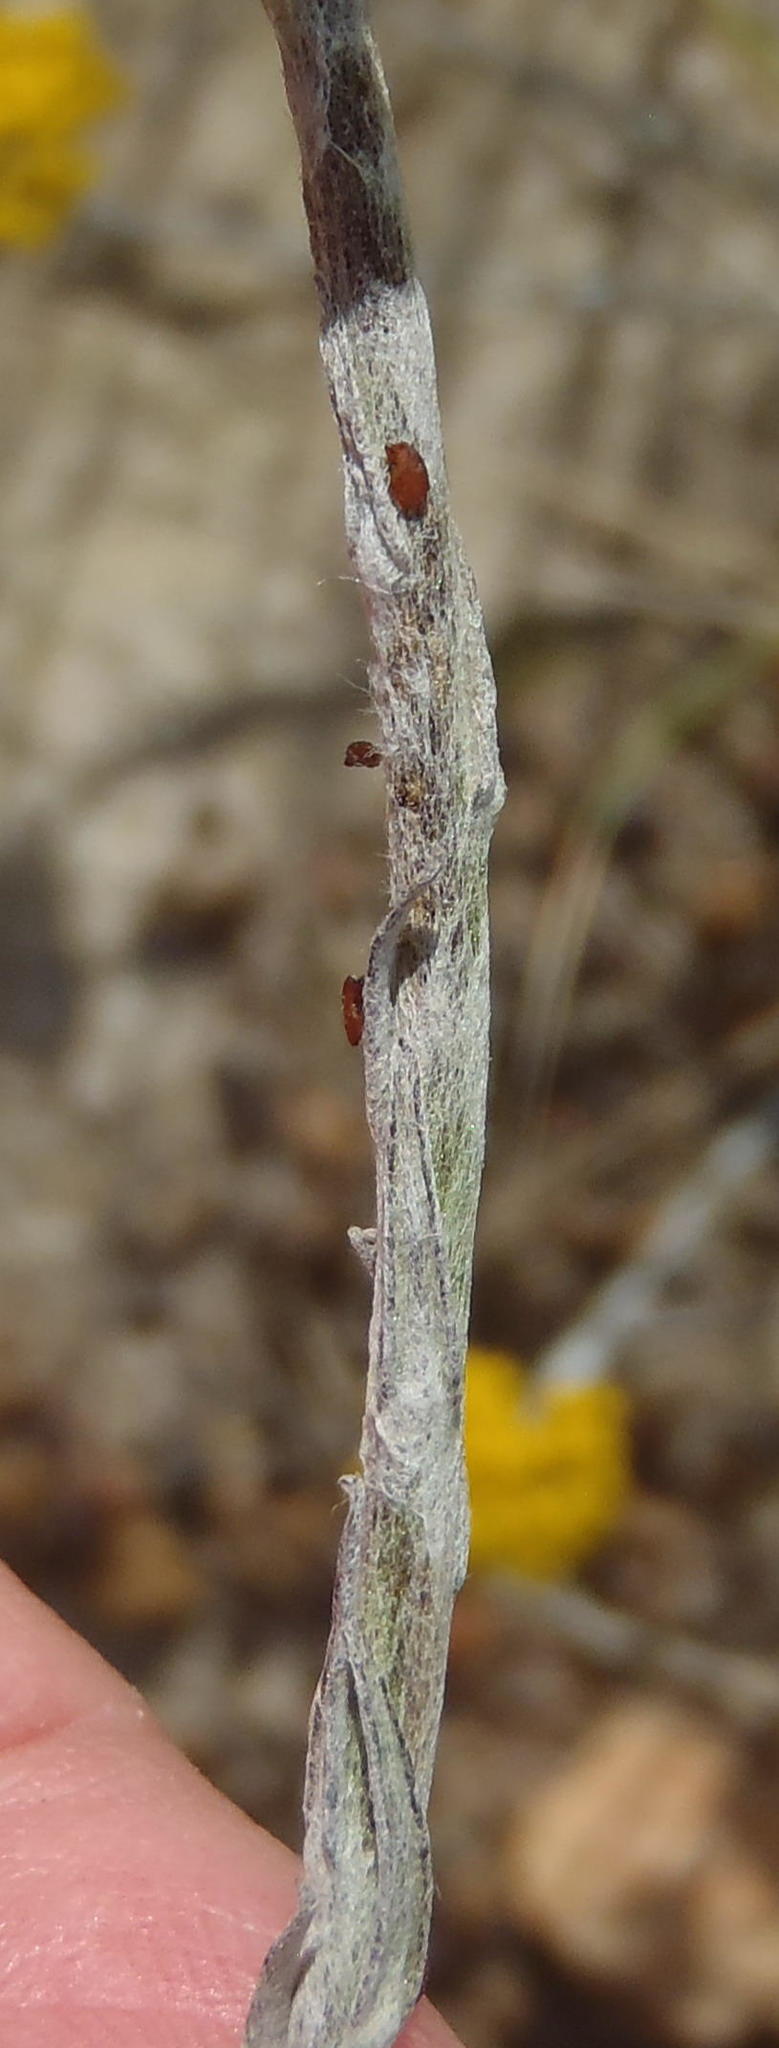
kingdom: Plantae
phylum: Tracheophyta
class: Magnoliopsida
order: Asterales
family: Asteraceae
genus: Helichrysum
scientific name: Helichrysum anomalum
